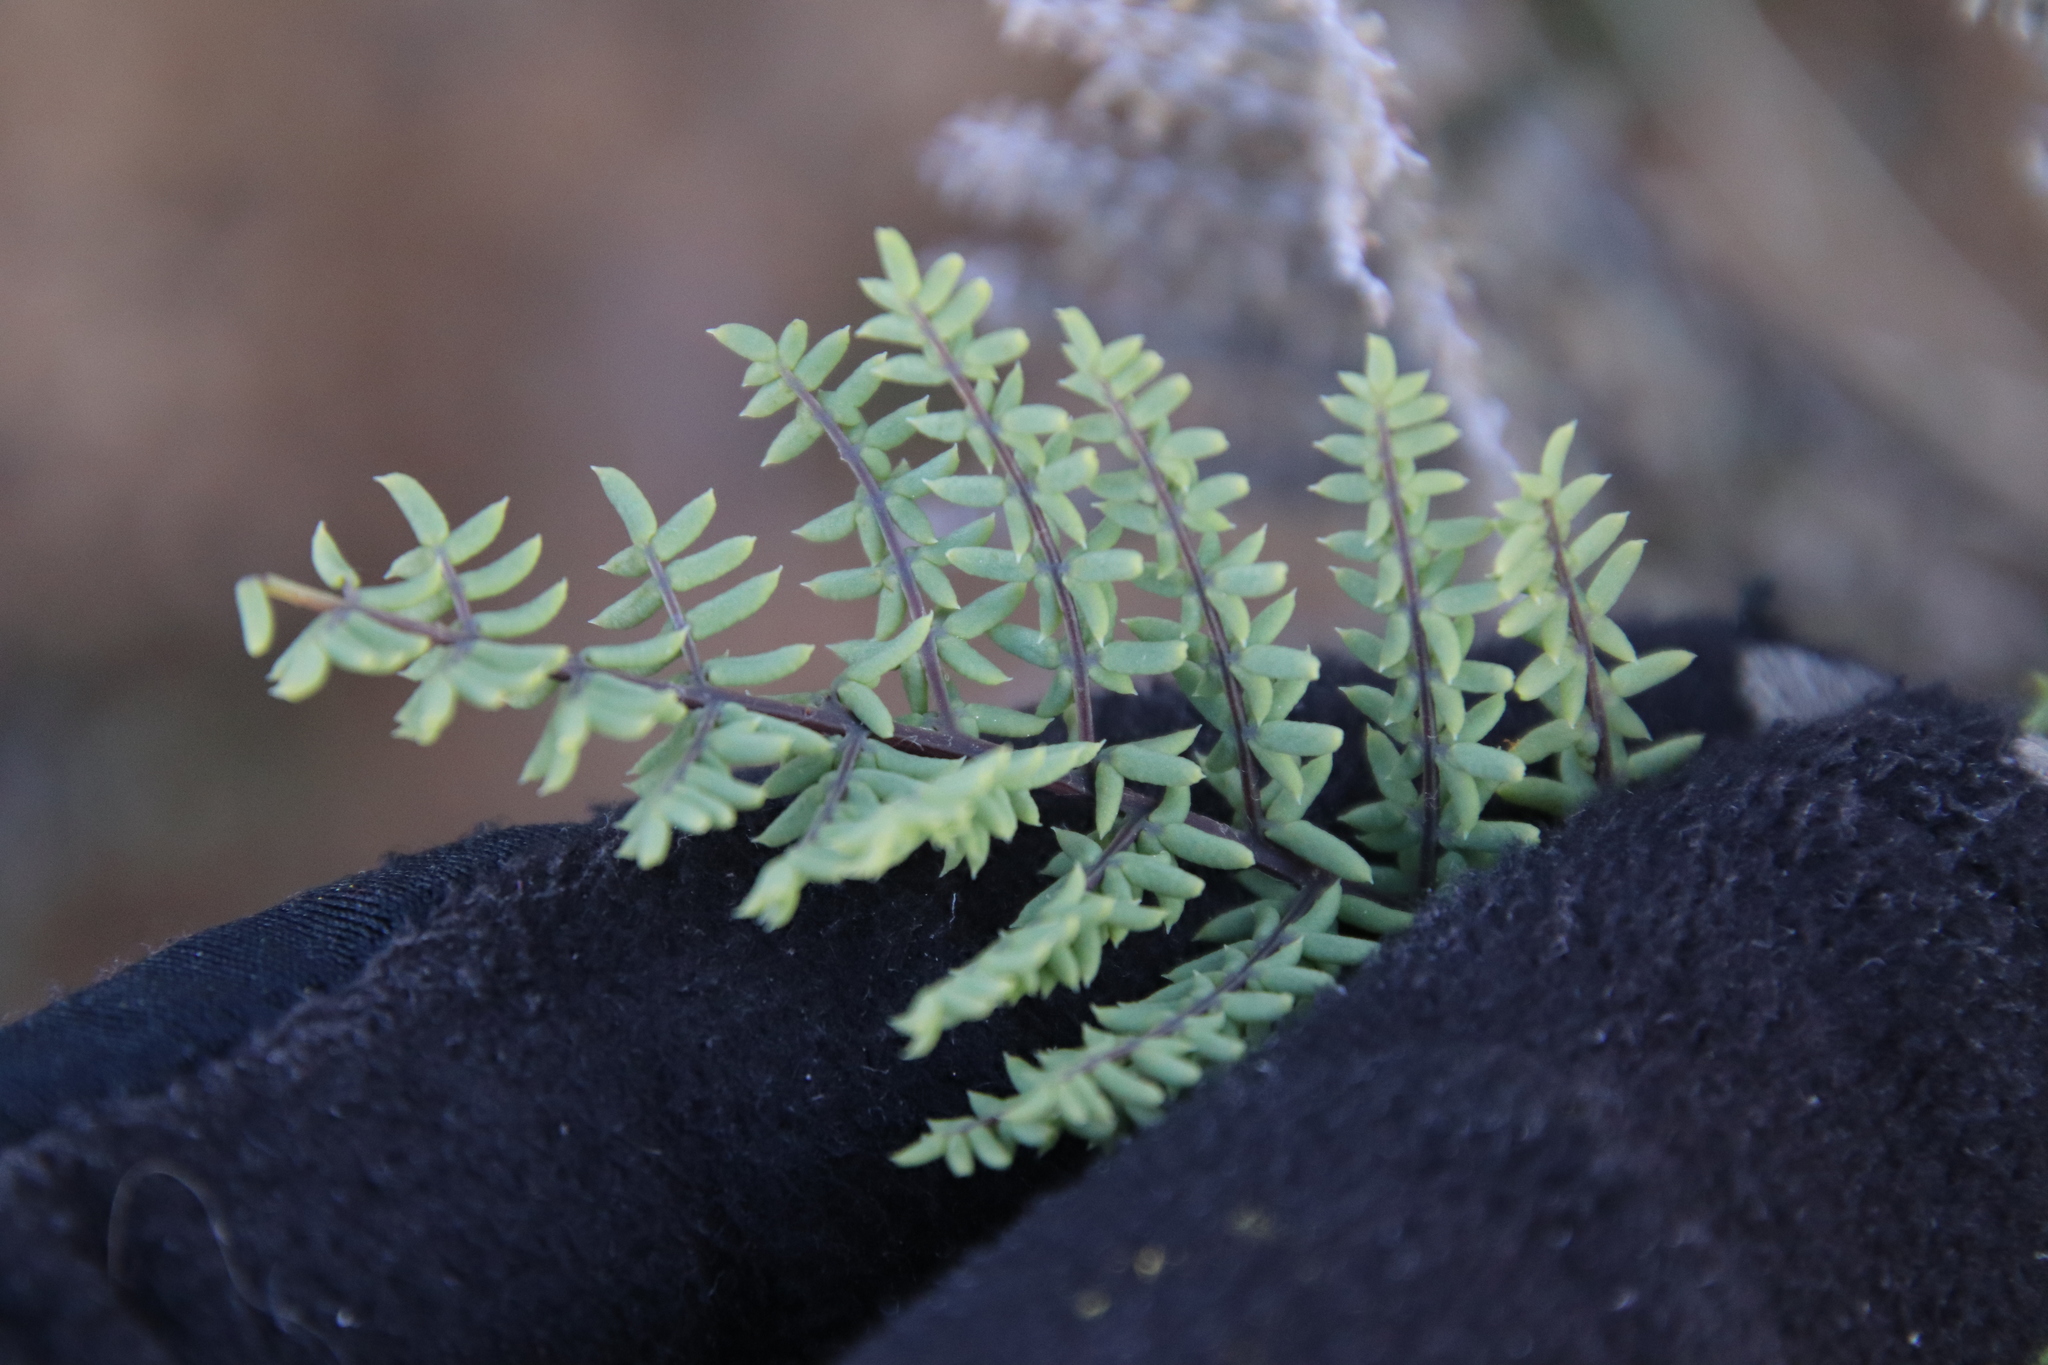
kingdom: Plantae
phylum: Tracheophyta
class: Polypodiopsida
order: Polypodiales
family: Pteridaceae
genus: Pellaea
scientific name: Pellaea mucronata
